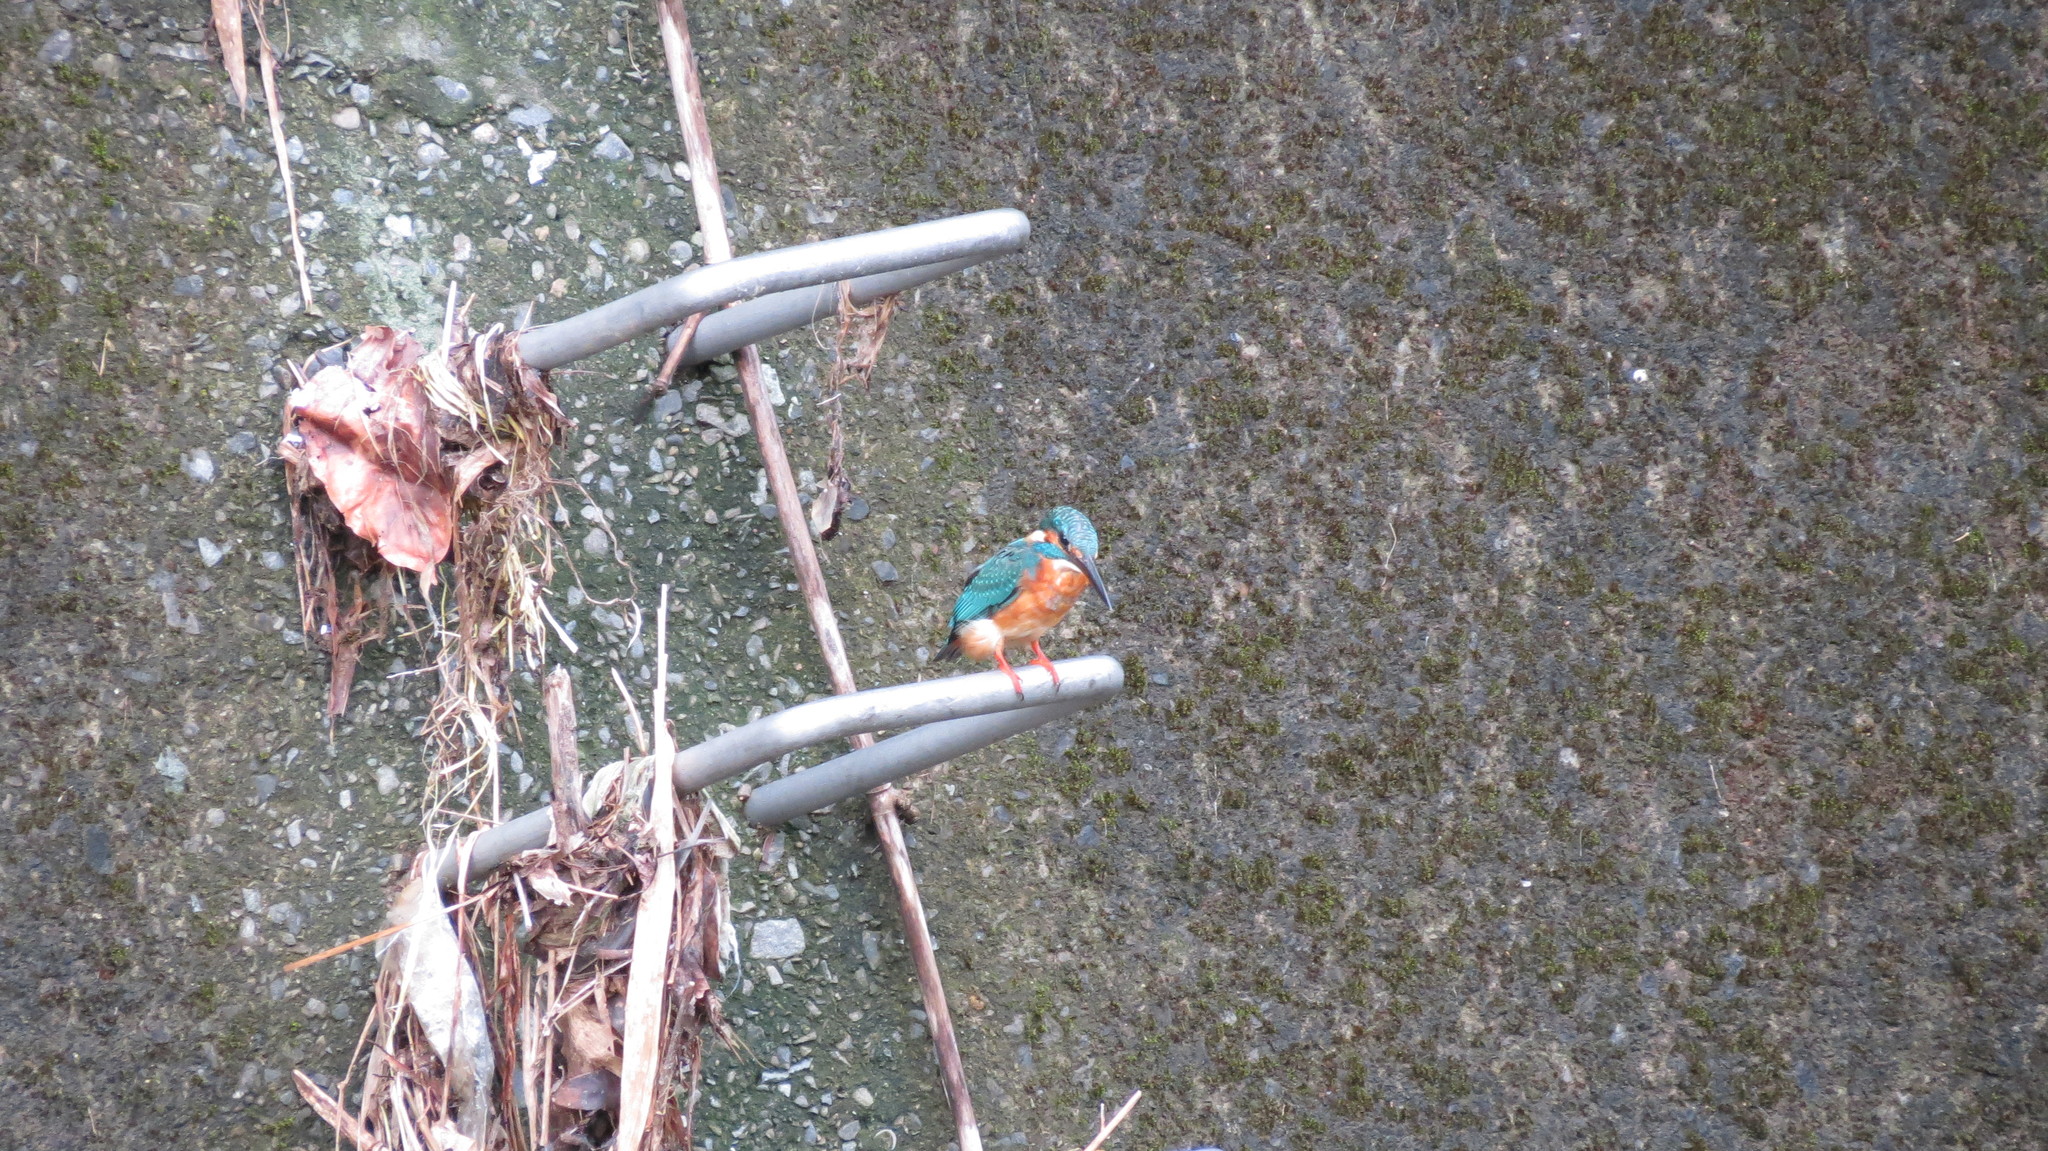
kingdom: Animalia
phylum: Chordata
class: Aves
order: Coraciiformes
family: Alcedinidae
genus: Alcedo
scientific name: Alcedo atthis
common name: Common kingfisher
